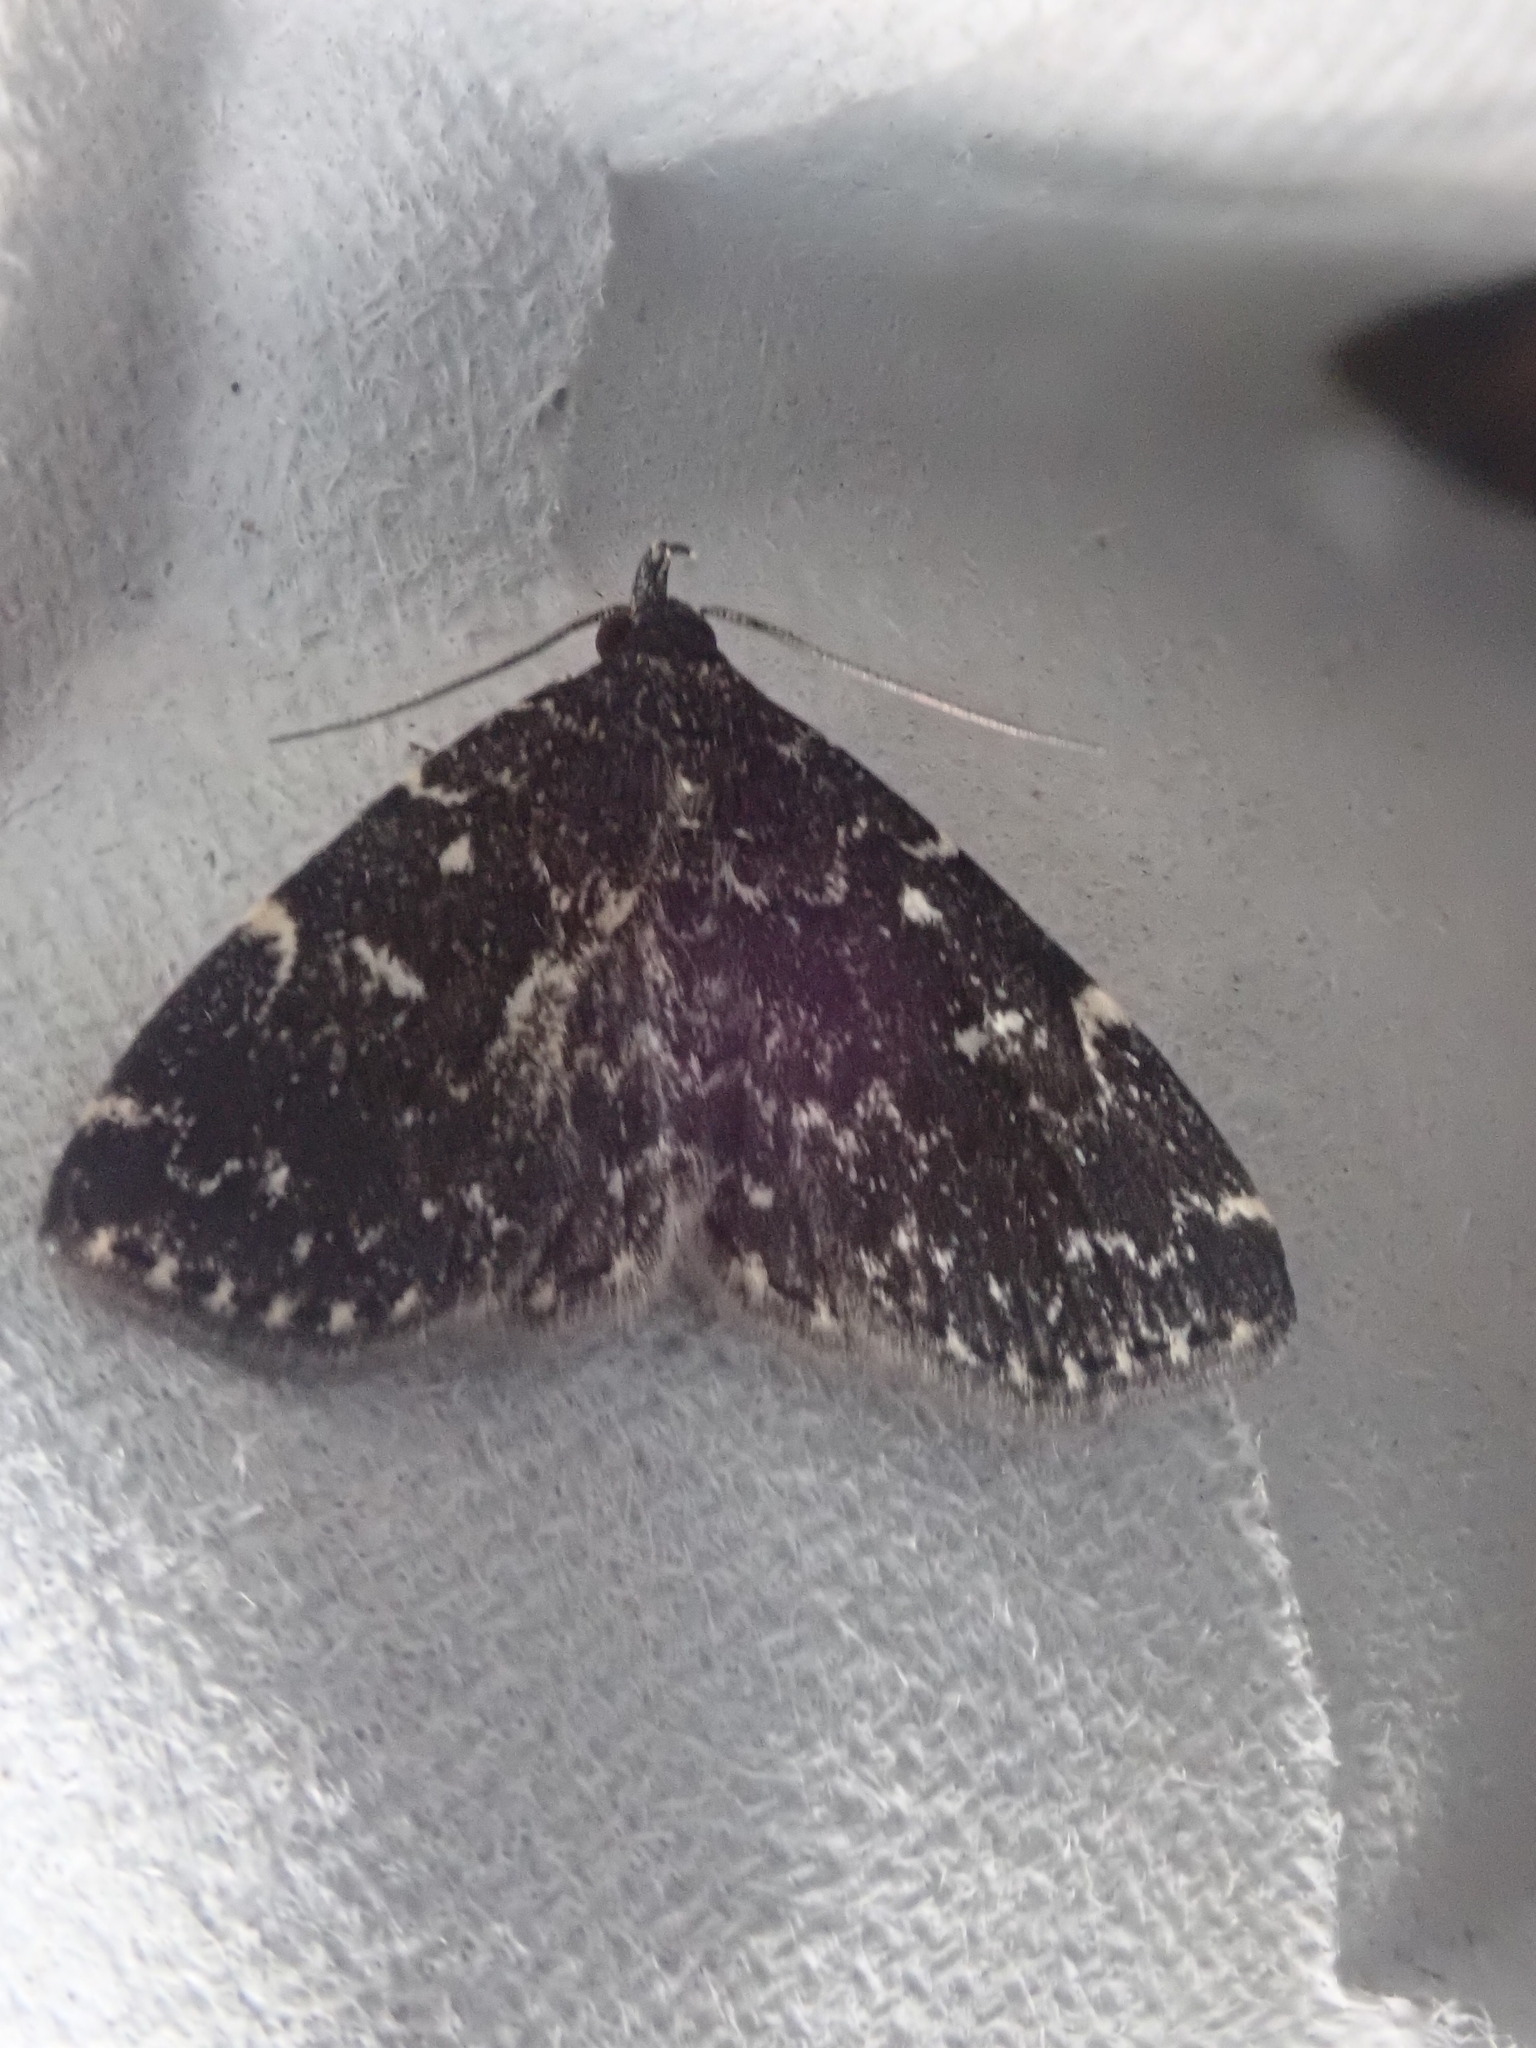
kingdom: Animalia
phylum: Arthropoda
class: Insecta
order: Lepidoptera
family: Erebidae
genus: Idia
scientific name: Idia scobialis
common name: Smoky idia moth
